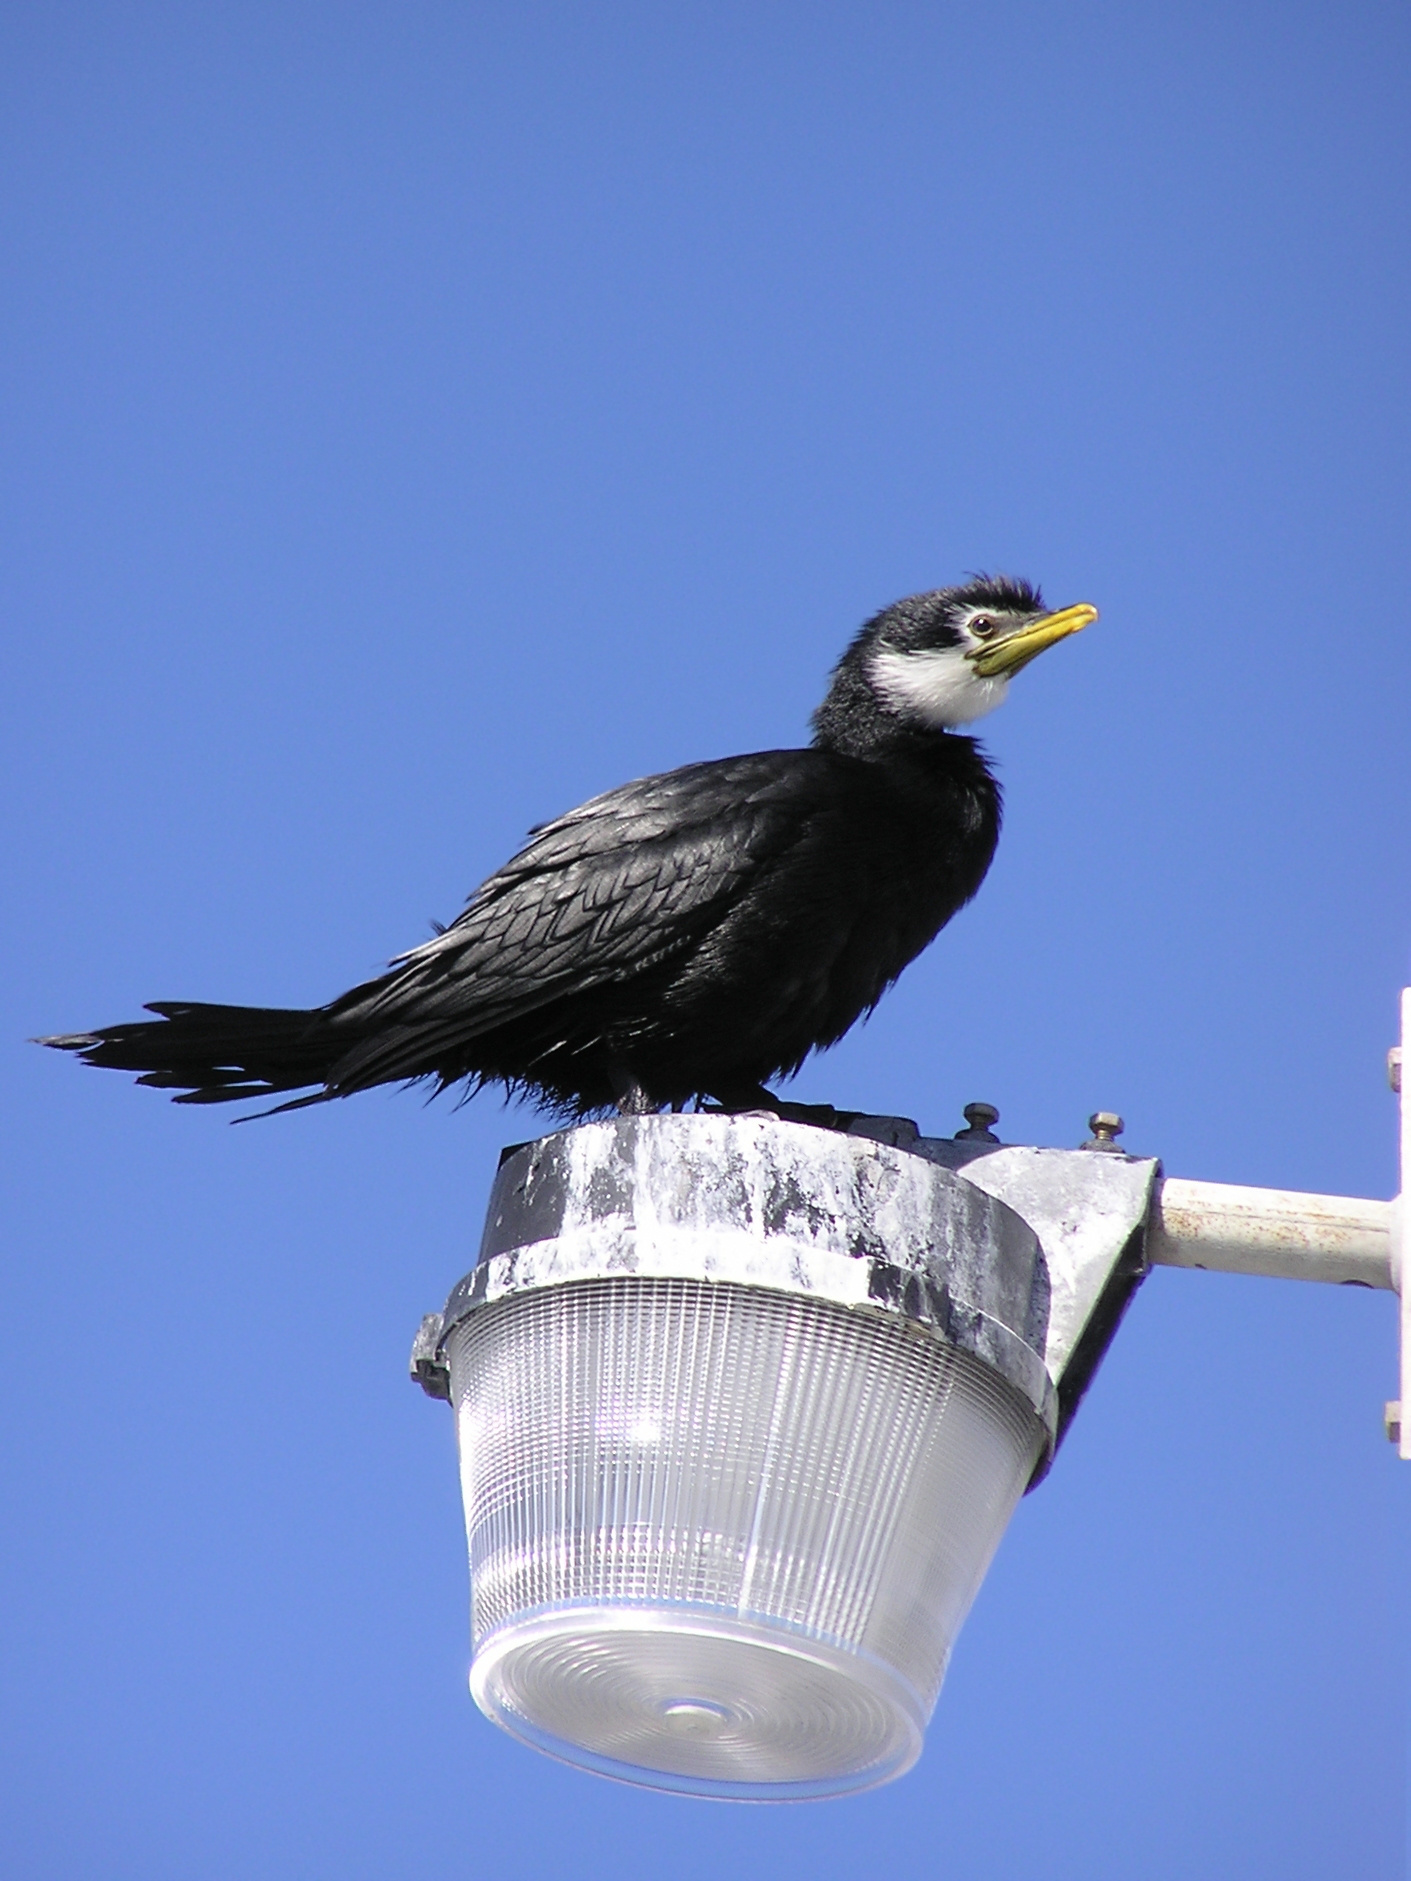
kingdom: Animalia
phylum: Chordata
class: Aves
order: Suliformes
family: Phalacrocoracidae
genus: Microcarbo
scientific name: Microcarbo melanoleucos
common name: Little pied cormorant
